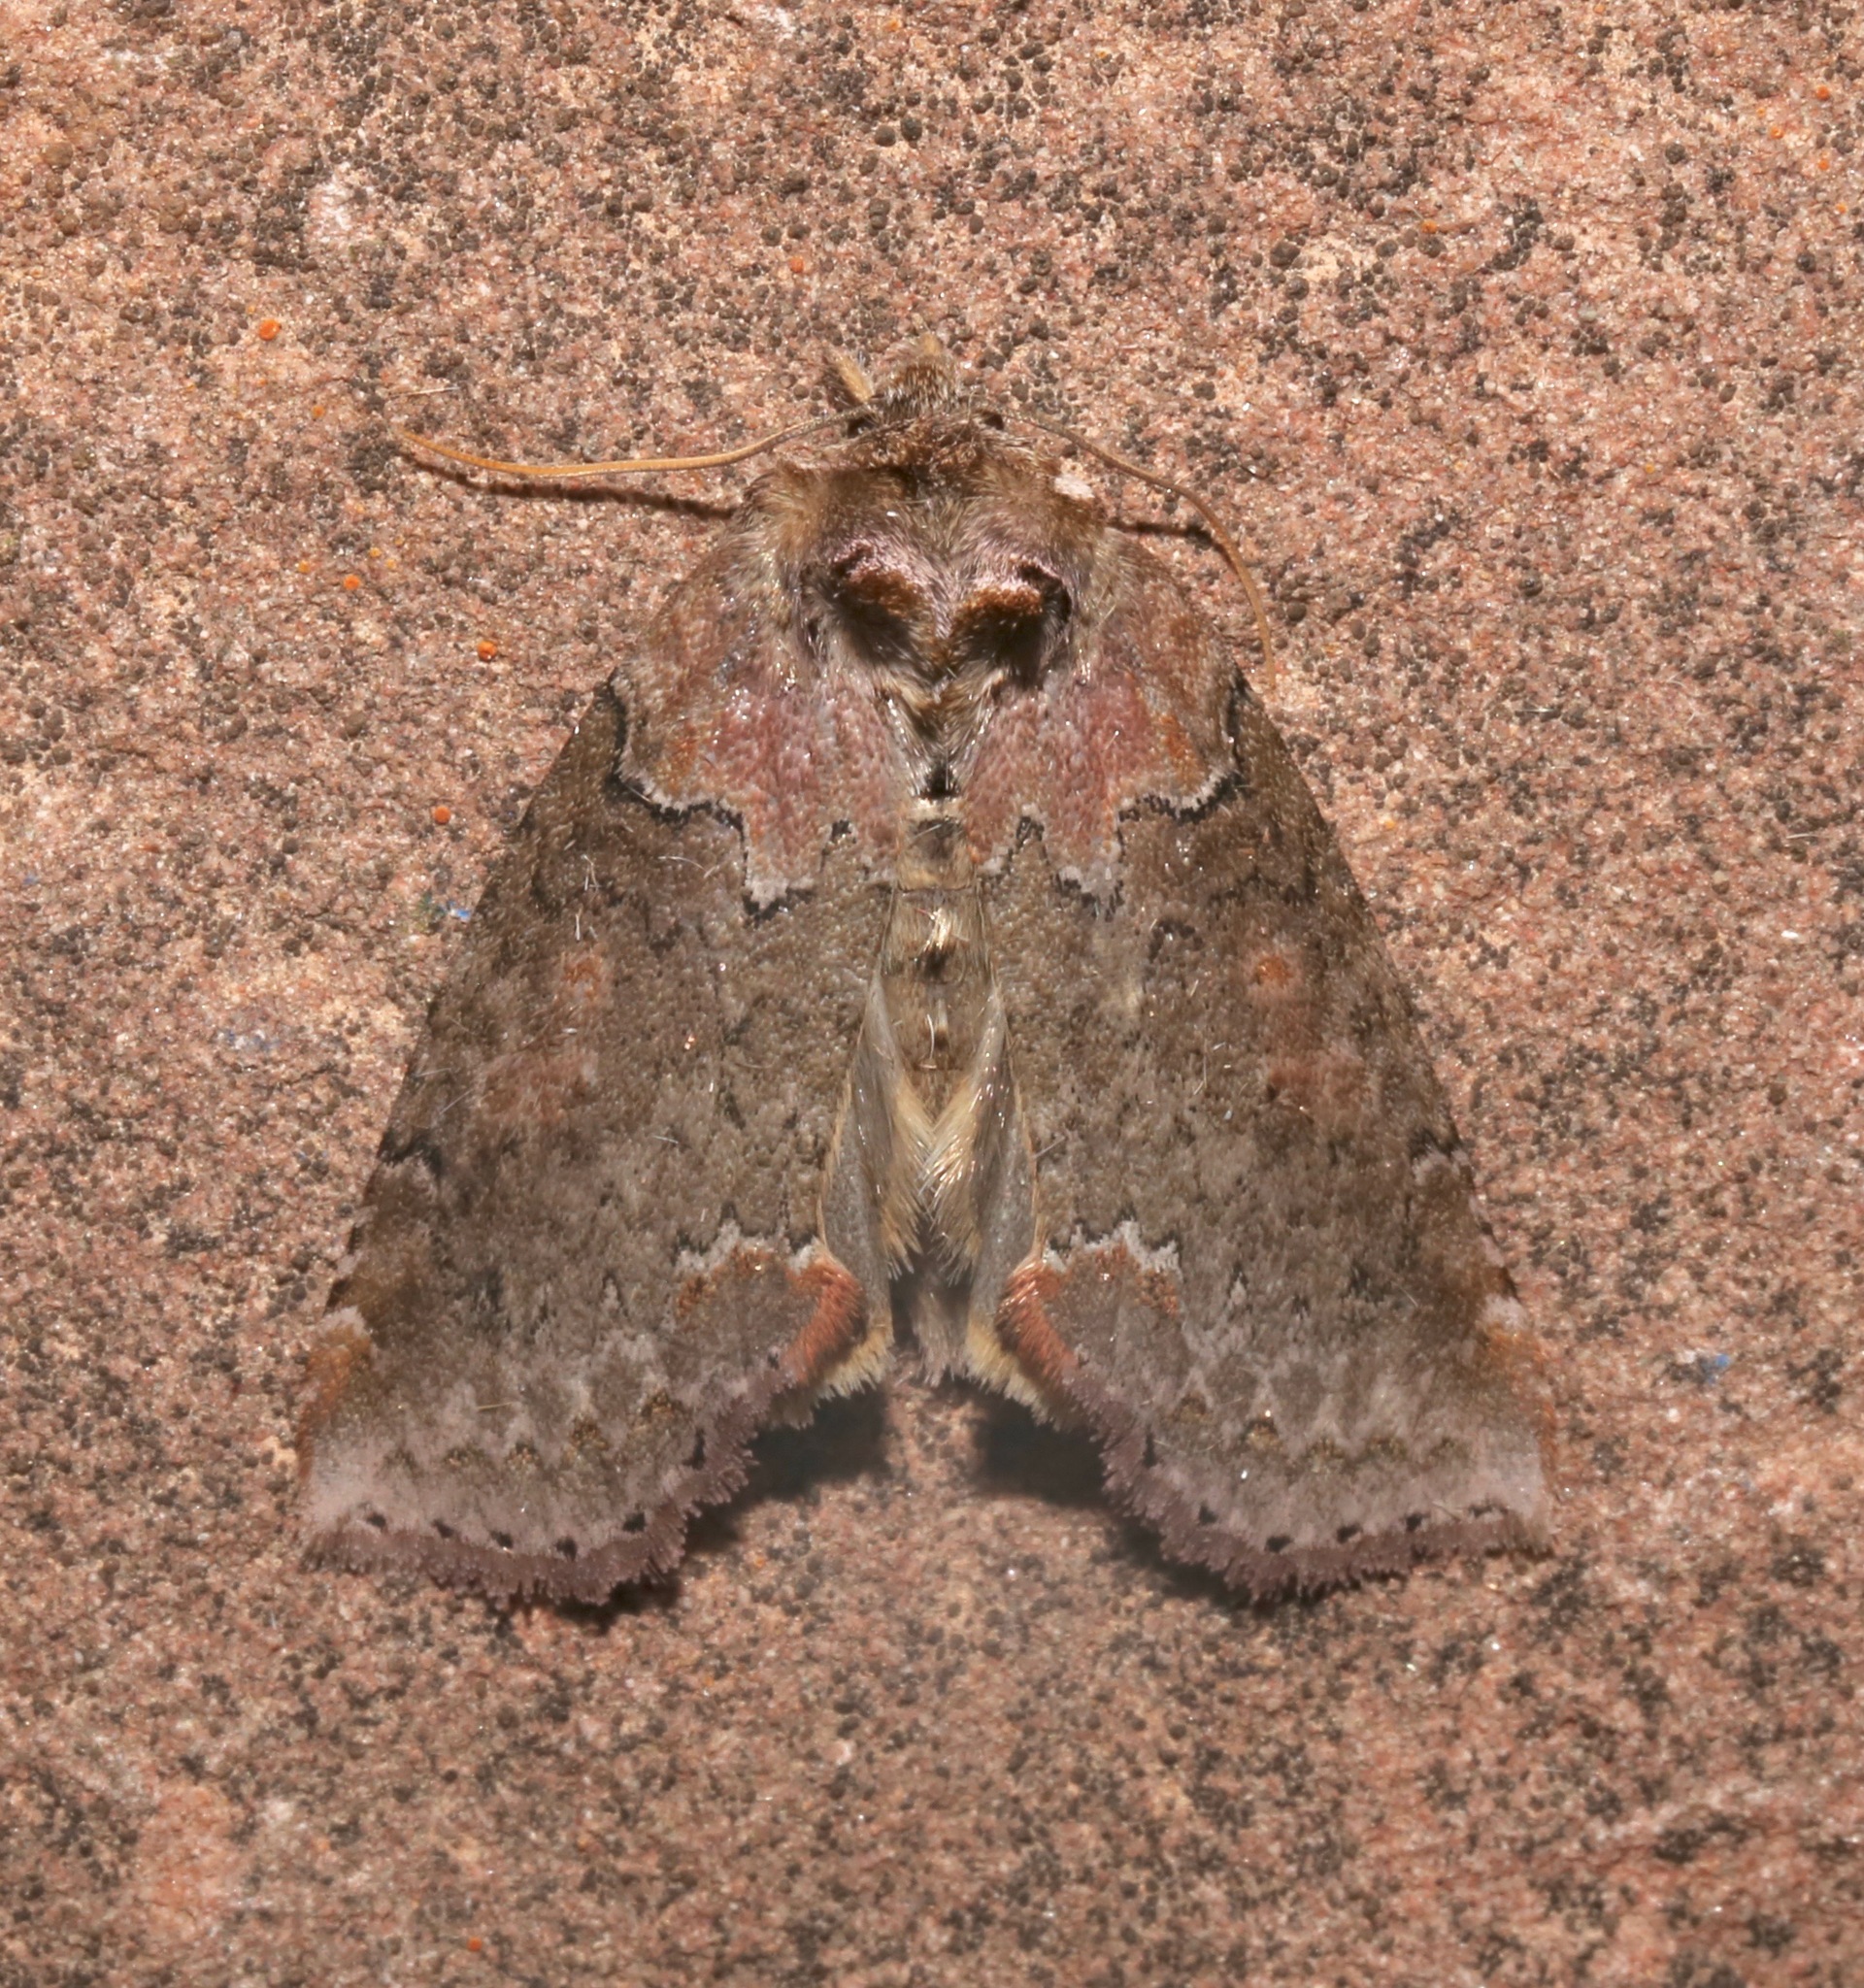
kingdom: Animalia
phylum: Arthropoda
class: Insecta
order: Lepidoptera
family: Drepanidae
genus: Pseudothyatira
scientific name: Pseudothyatira cymatophoroides
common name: Tufted thyatirid moth
